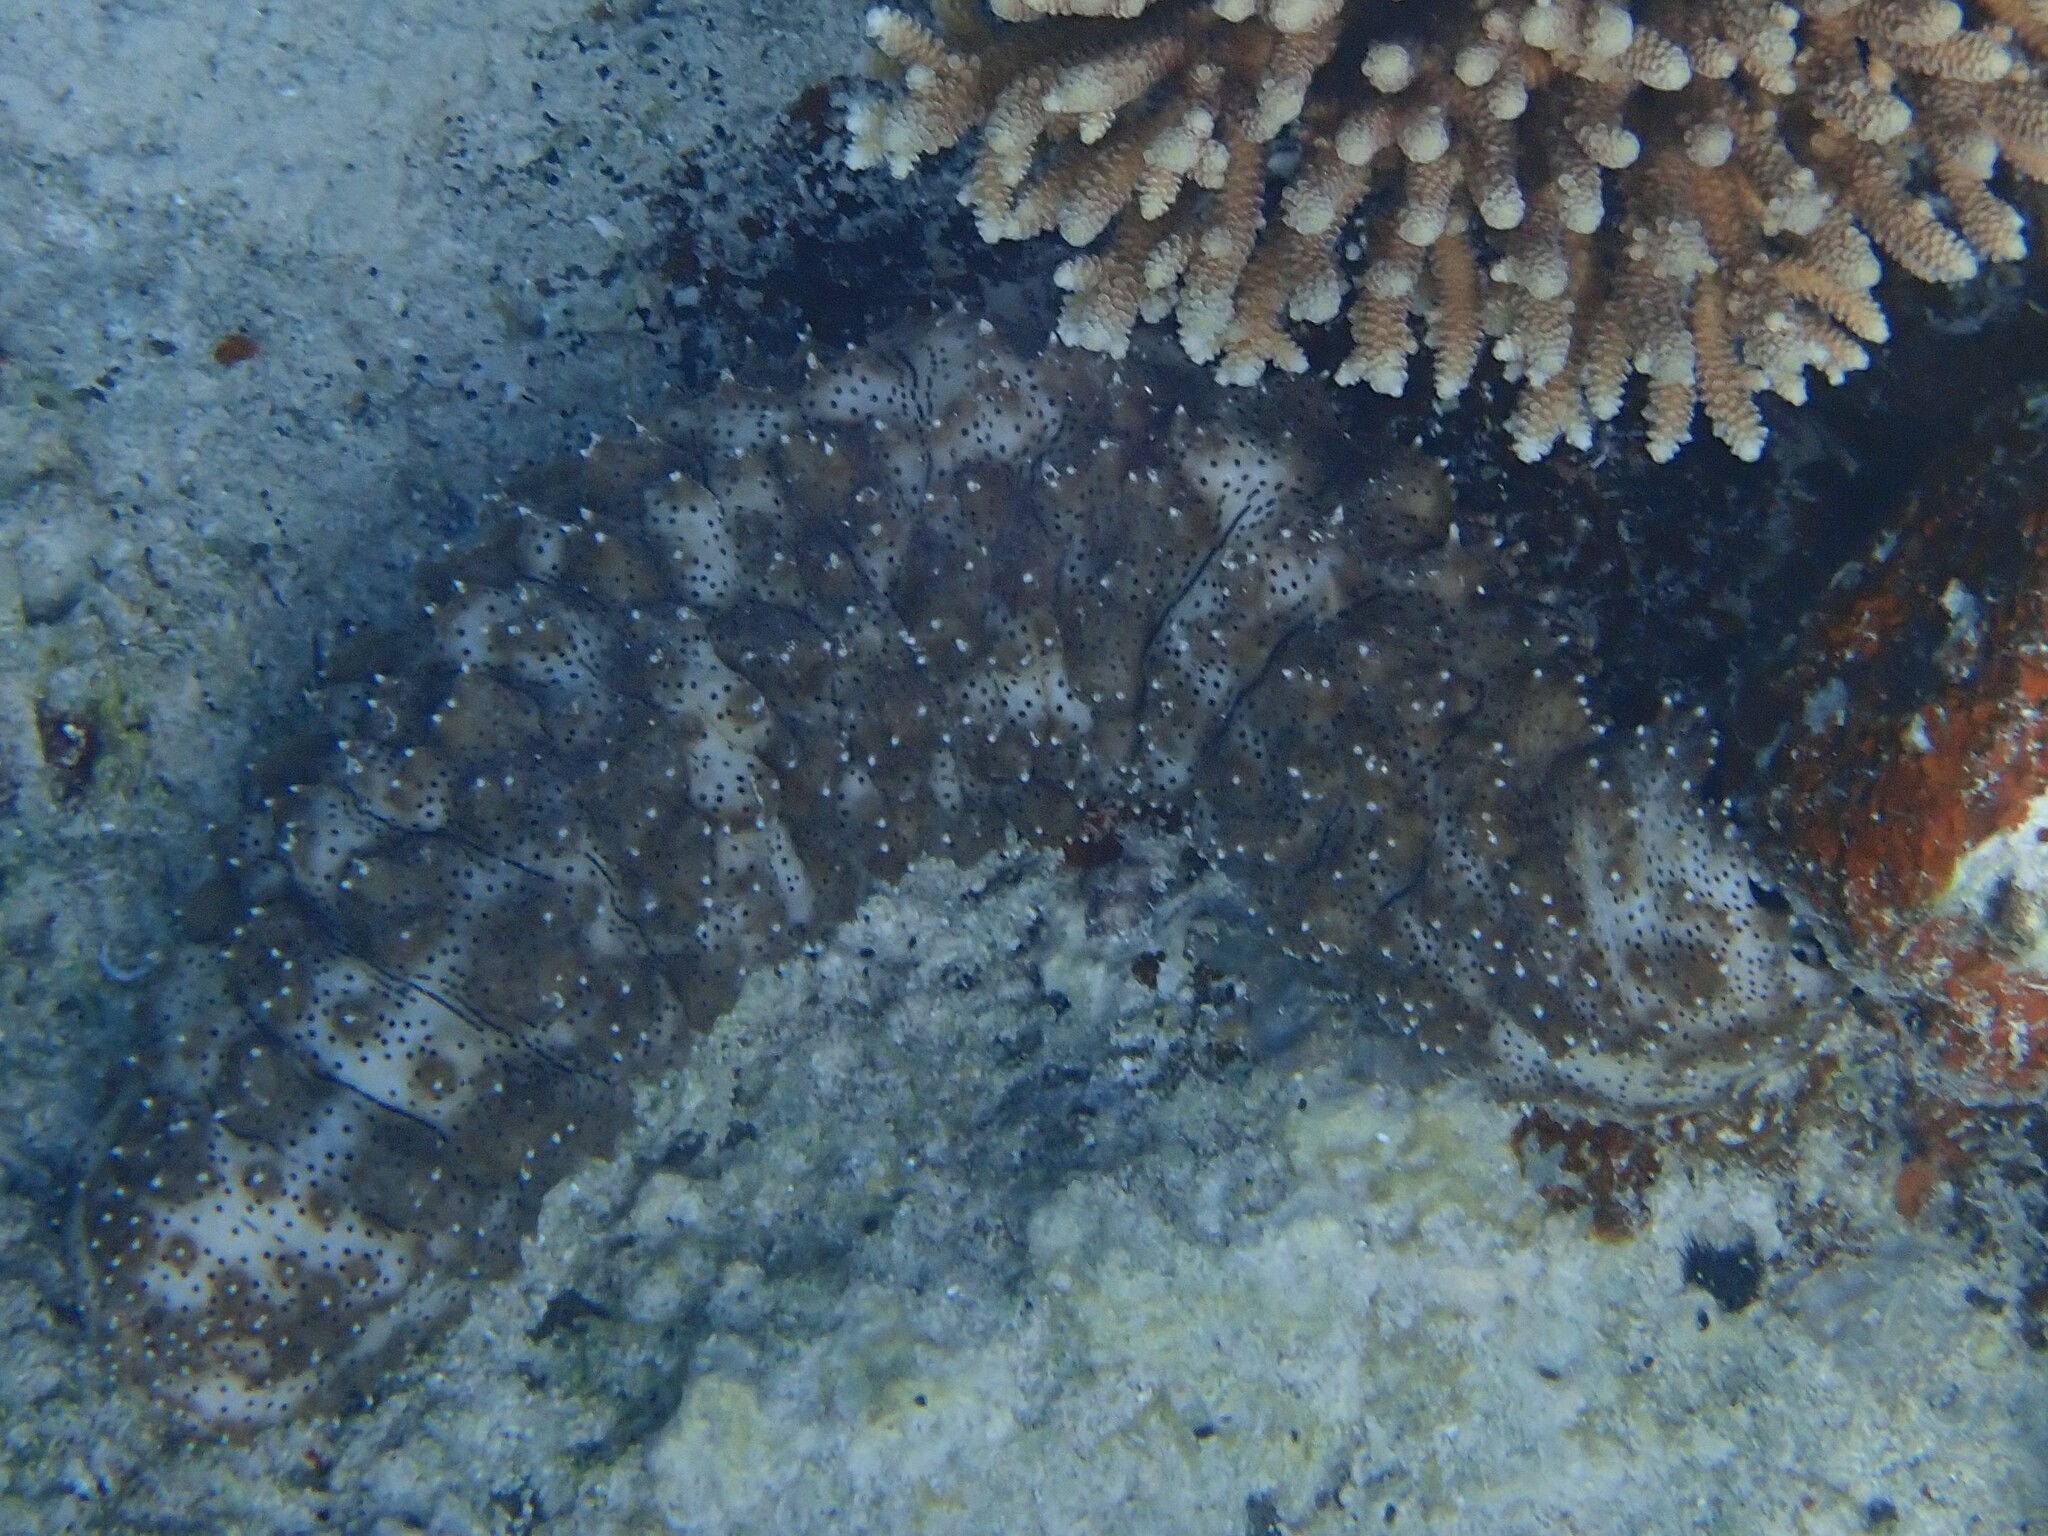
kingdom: Animalia
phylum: Echinodermata
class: Holothuroidea
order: Holothuriida
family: Holothuriidae
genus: Pearsonothuria
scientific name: Pearsonothuria graeffei
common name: Blackspotted sea cucumber
